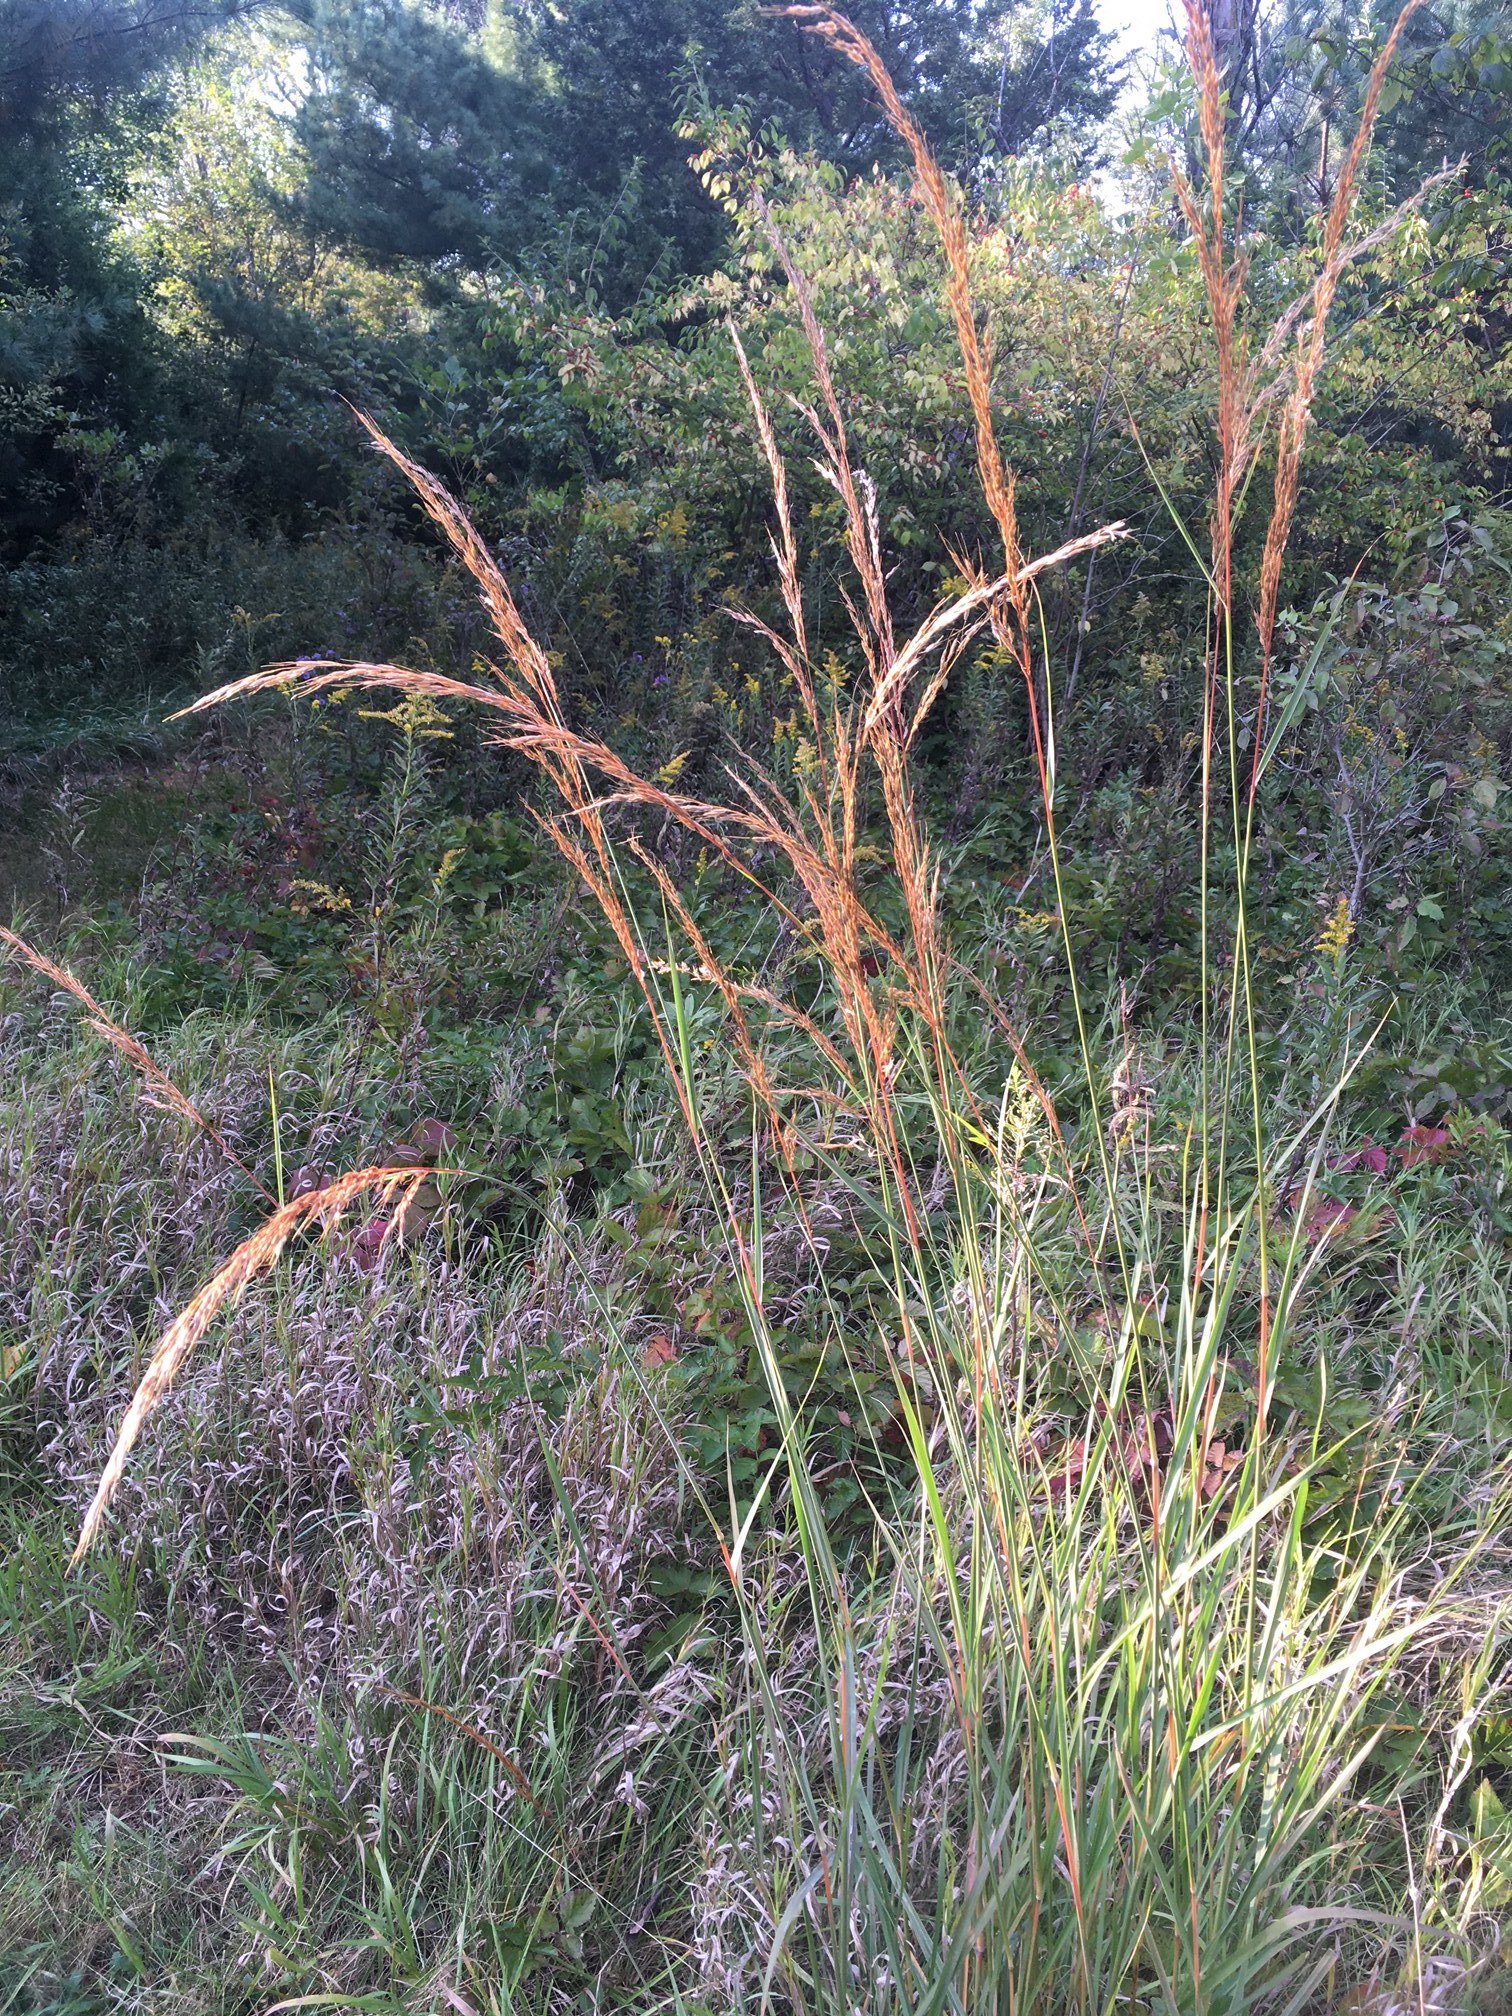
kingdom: Plantae
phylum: Tracheophyta
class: Liliopsida
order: Poales
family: Poaceae
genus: Sorghastrum
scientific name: Sorghastrum nutans
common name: Indian grass
